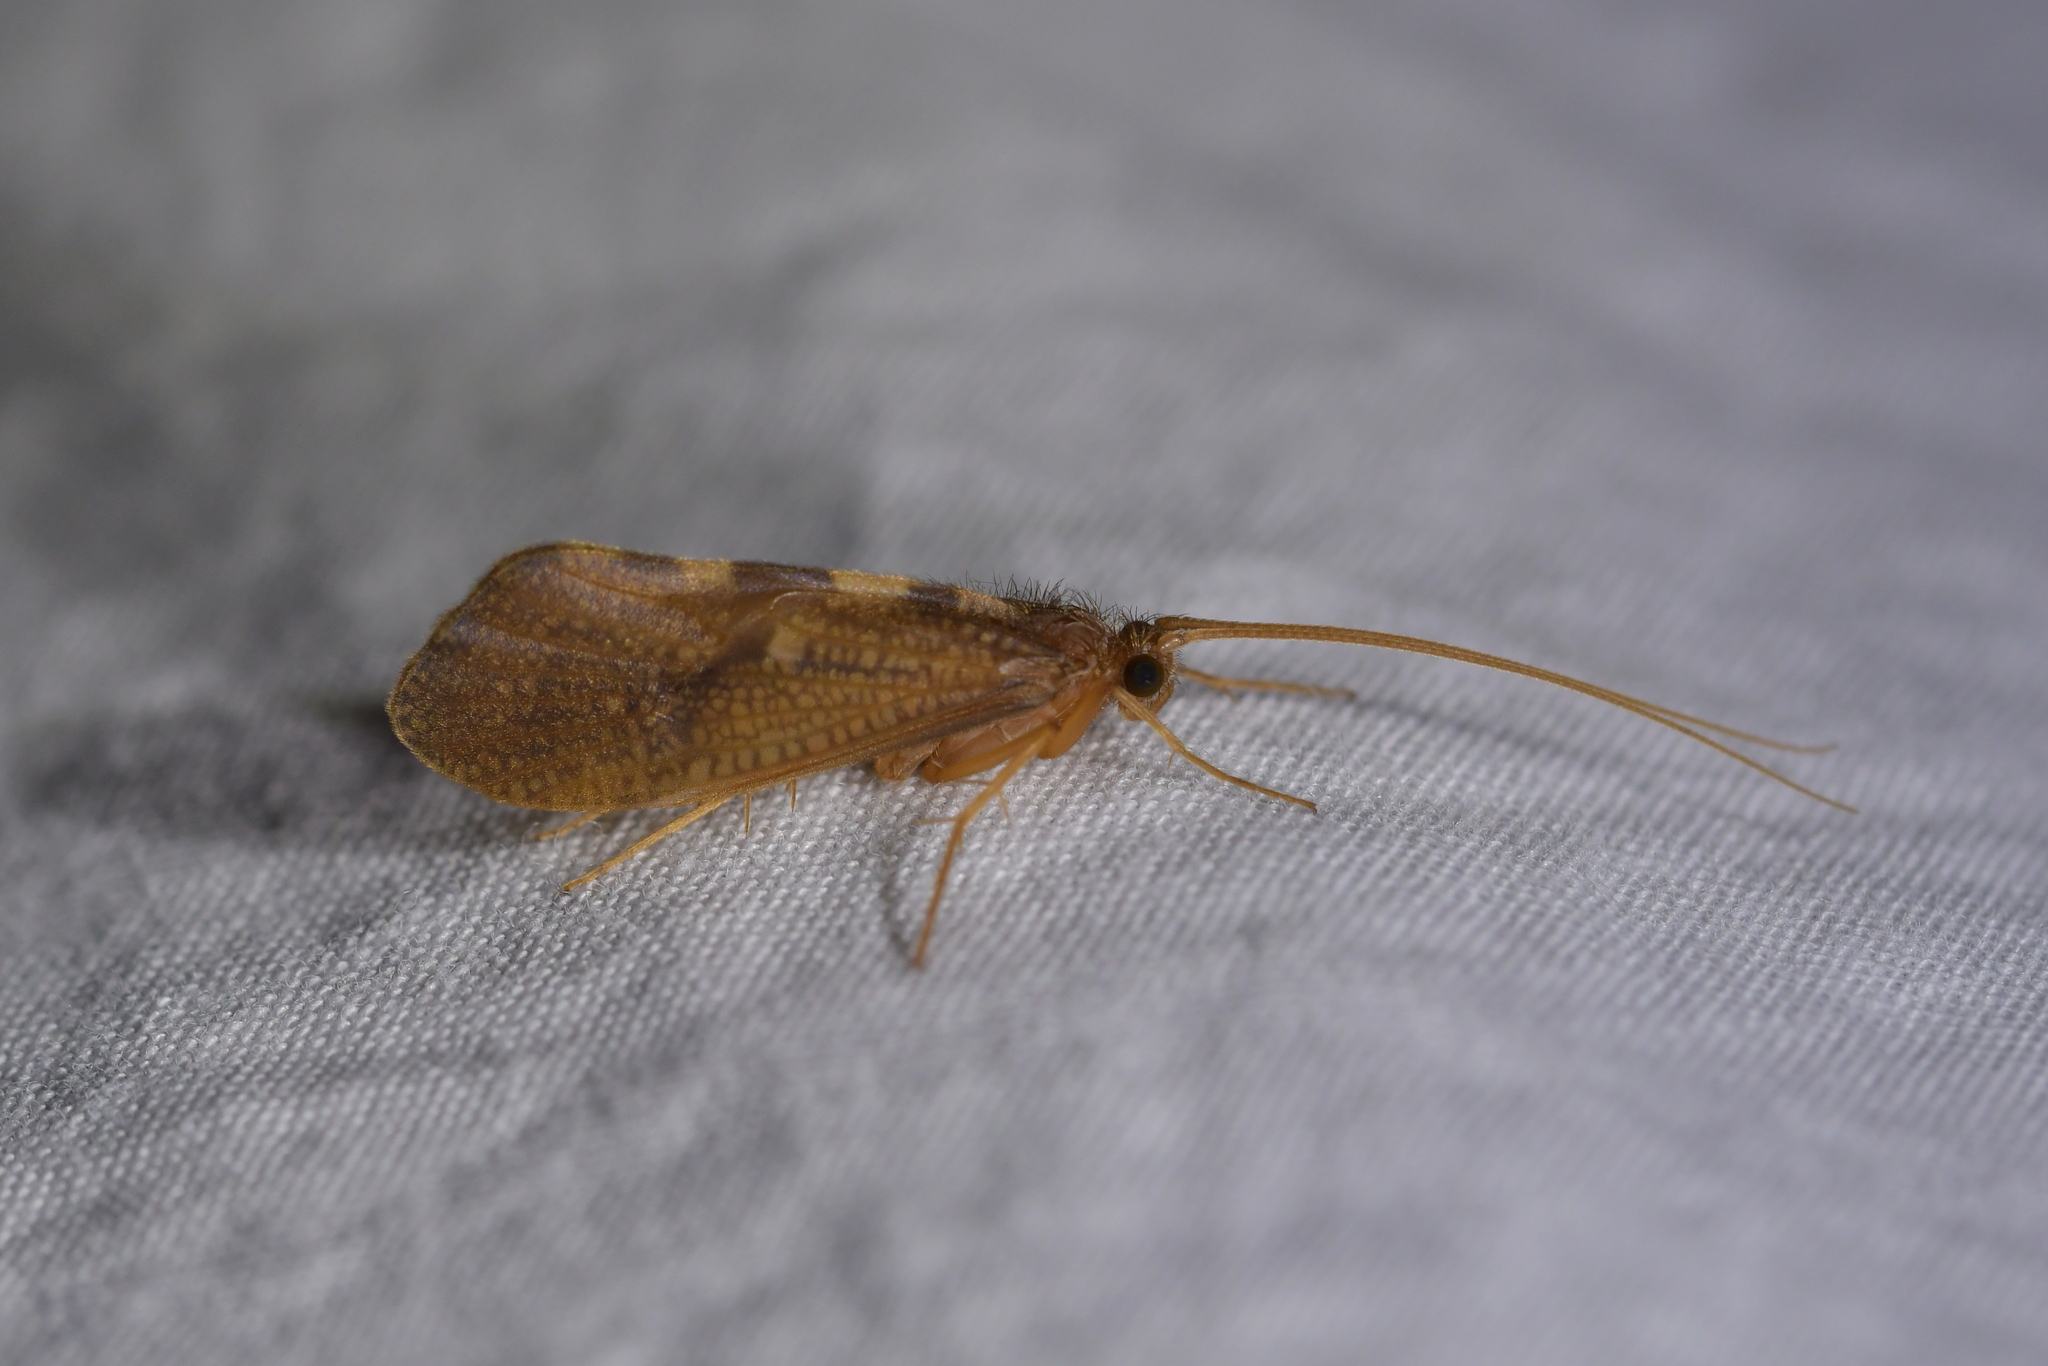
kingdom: Animalia
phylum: Arthropoda
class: Insecta
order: Trichoptera
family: Oeconesidae
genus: Oeconesus
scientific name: Oeconesus maori
